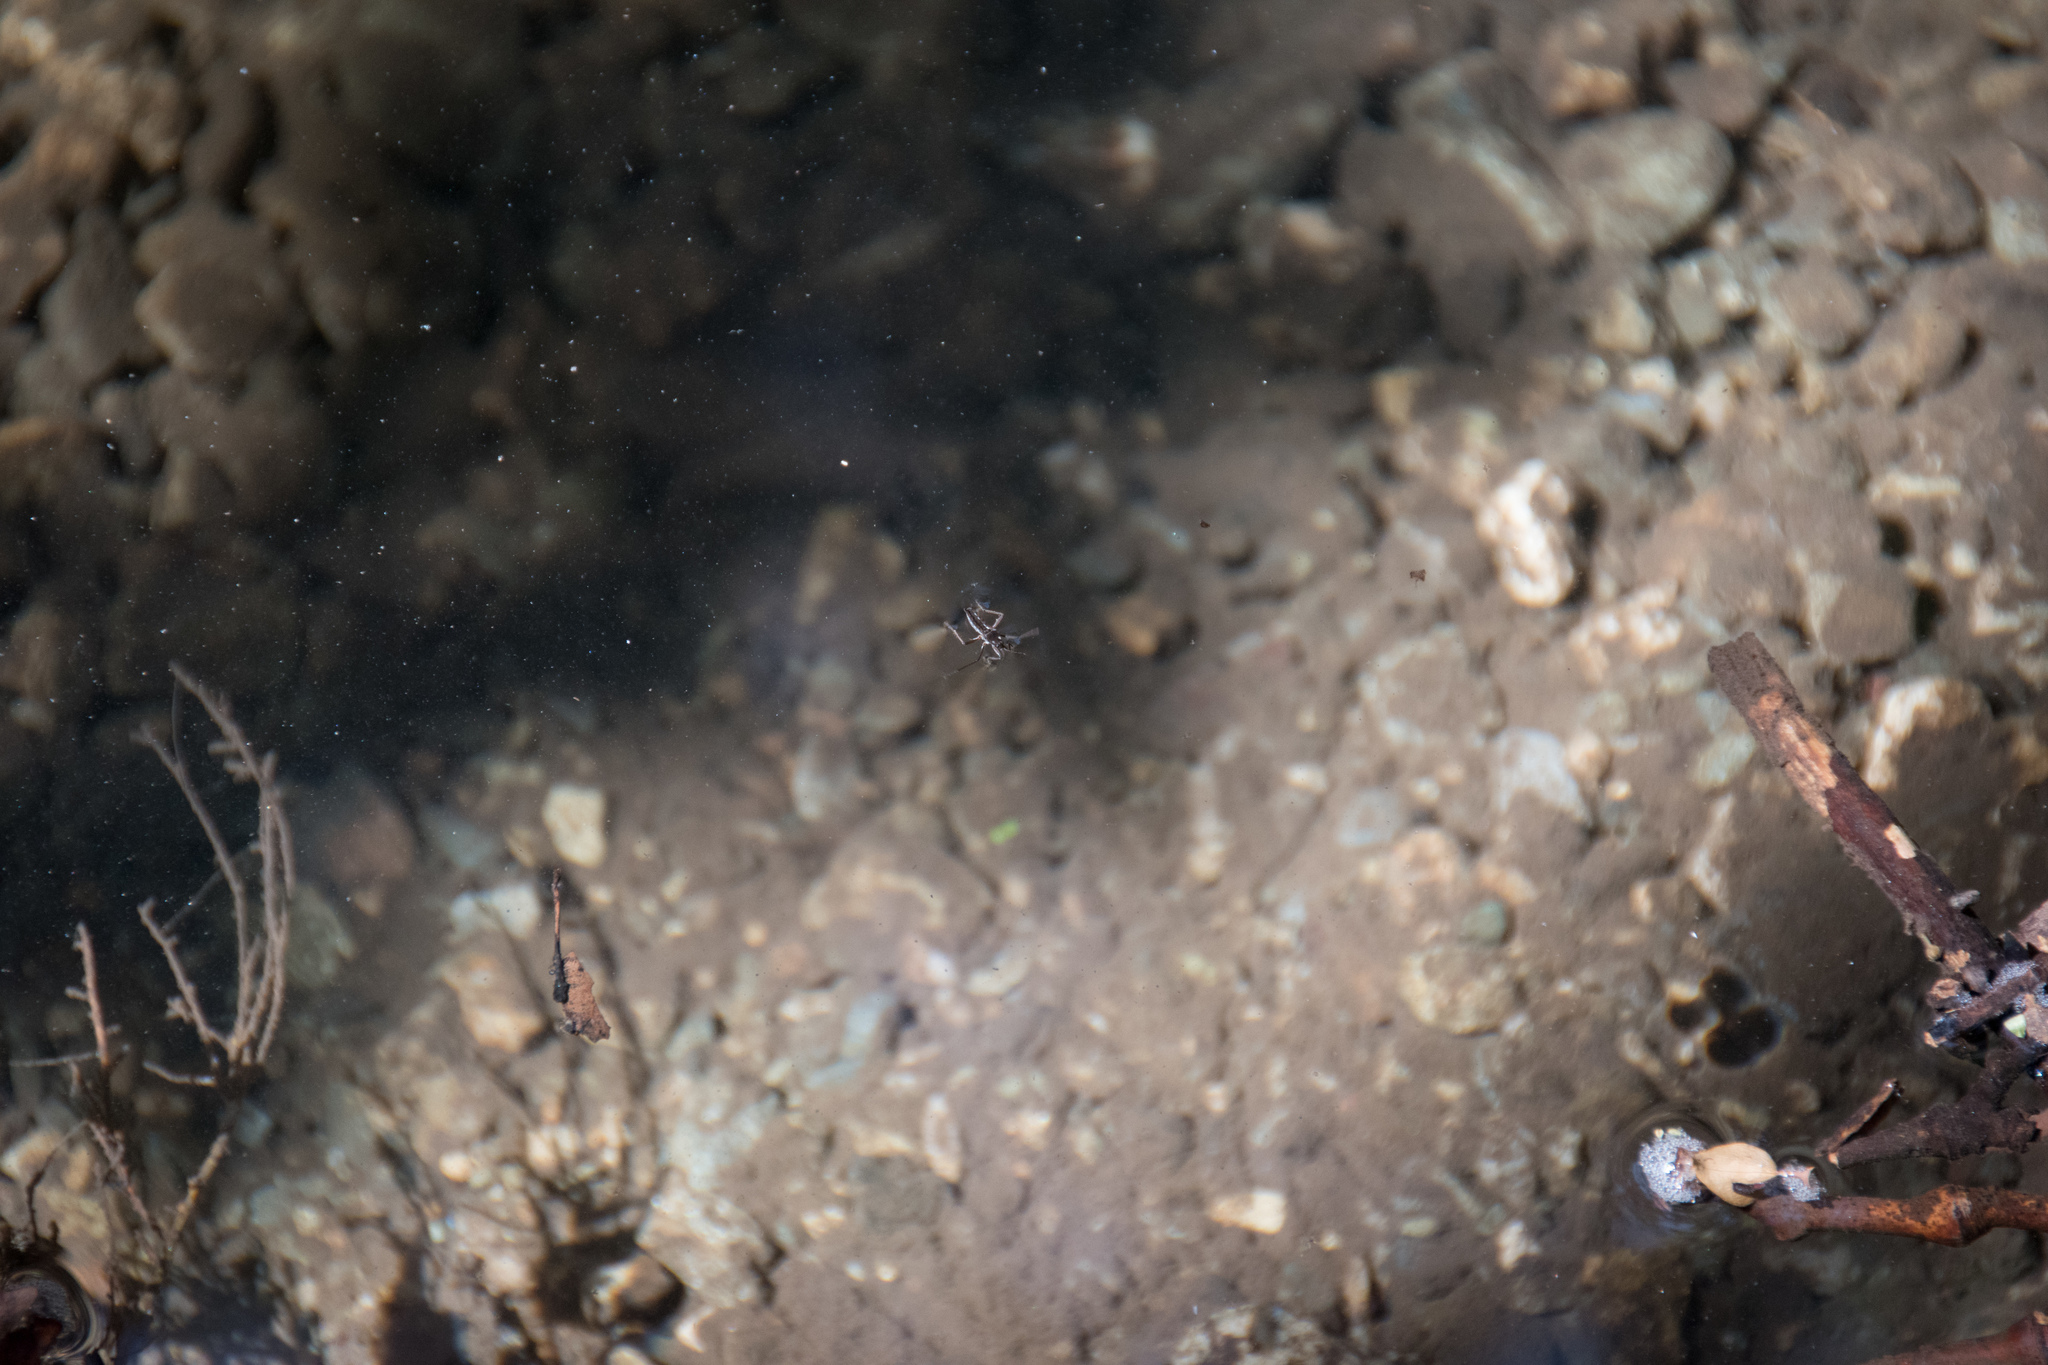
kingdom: Animalia
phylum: Arthropoda
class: Insecta
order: Hemiptera
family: Veliidae
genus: Velia
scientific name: Velia
